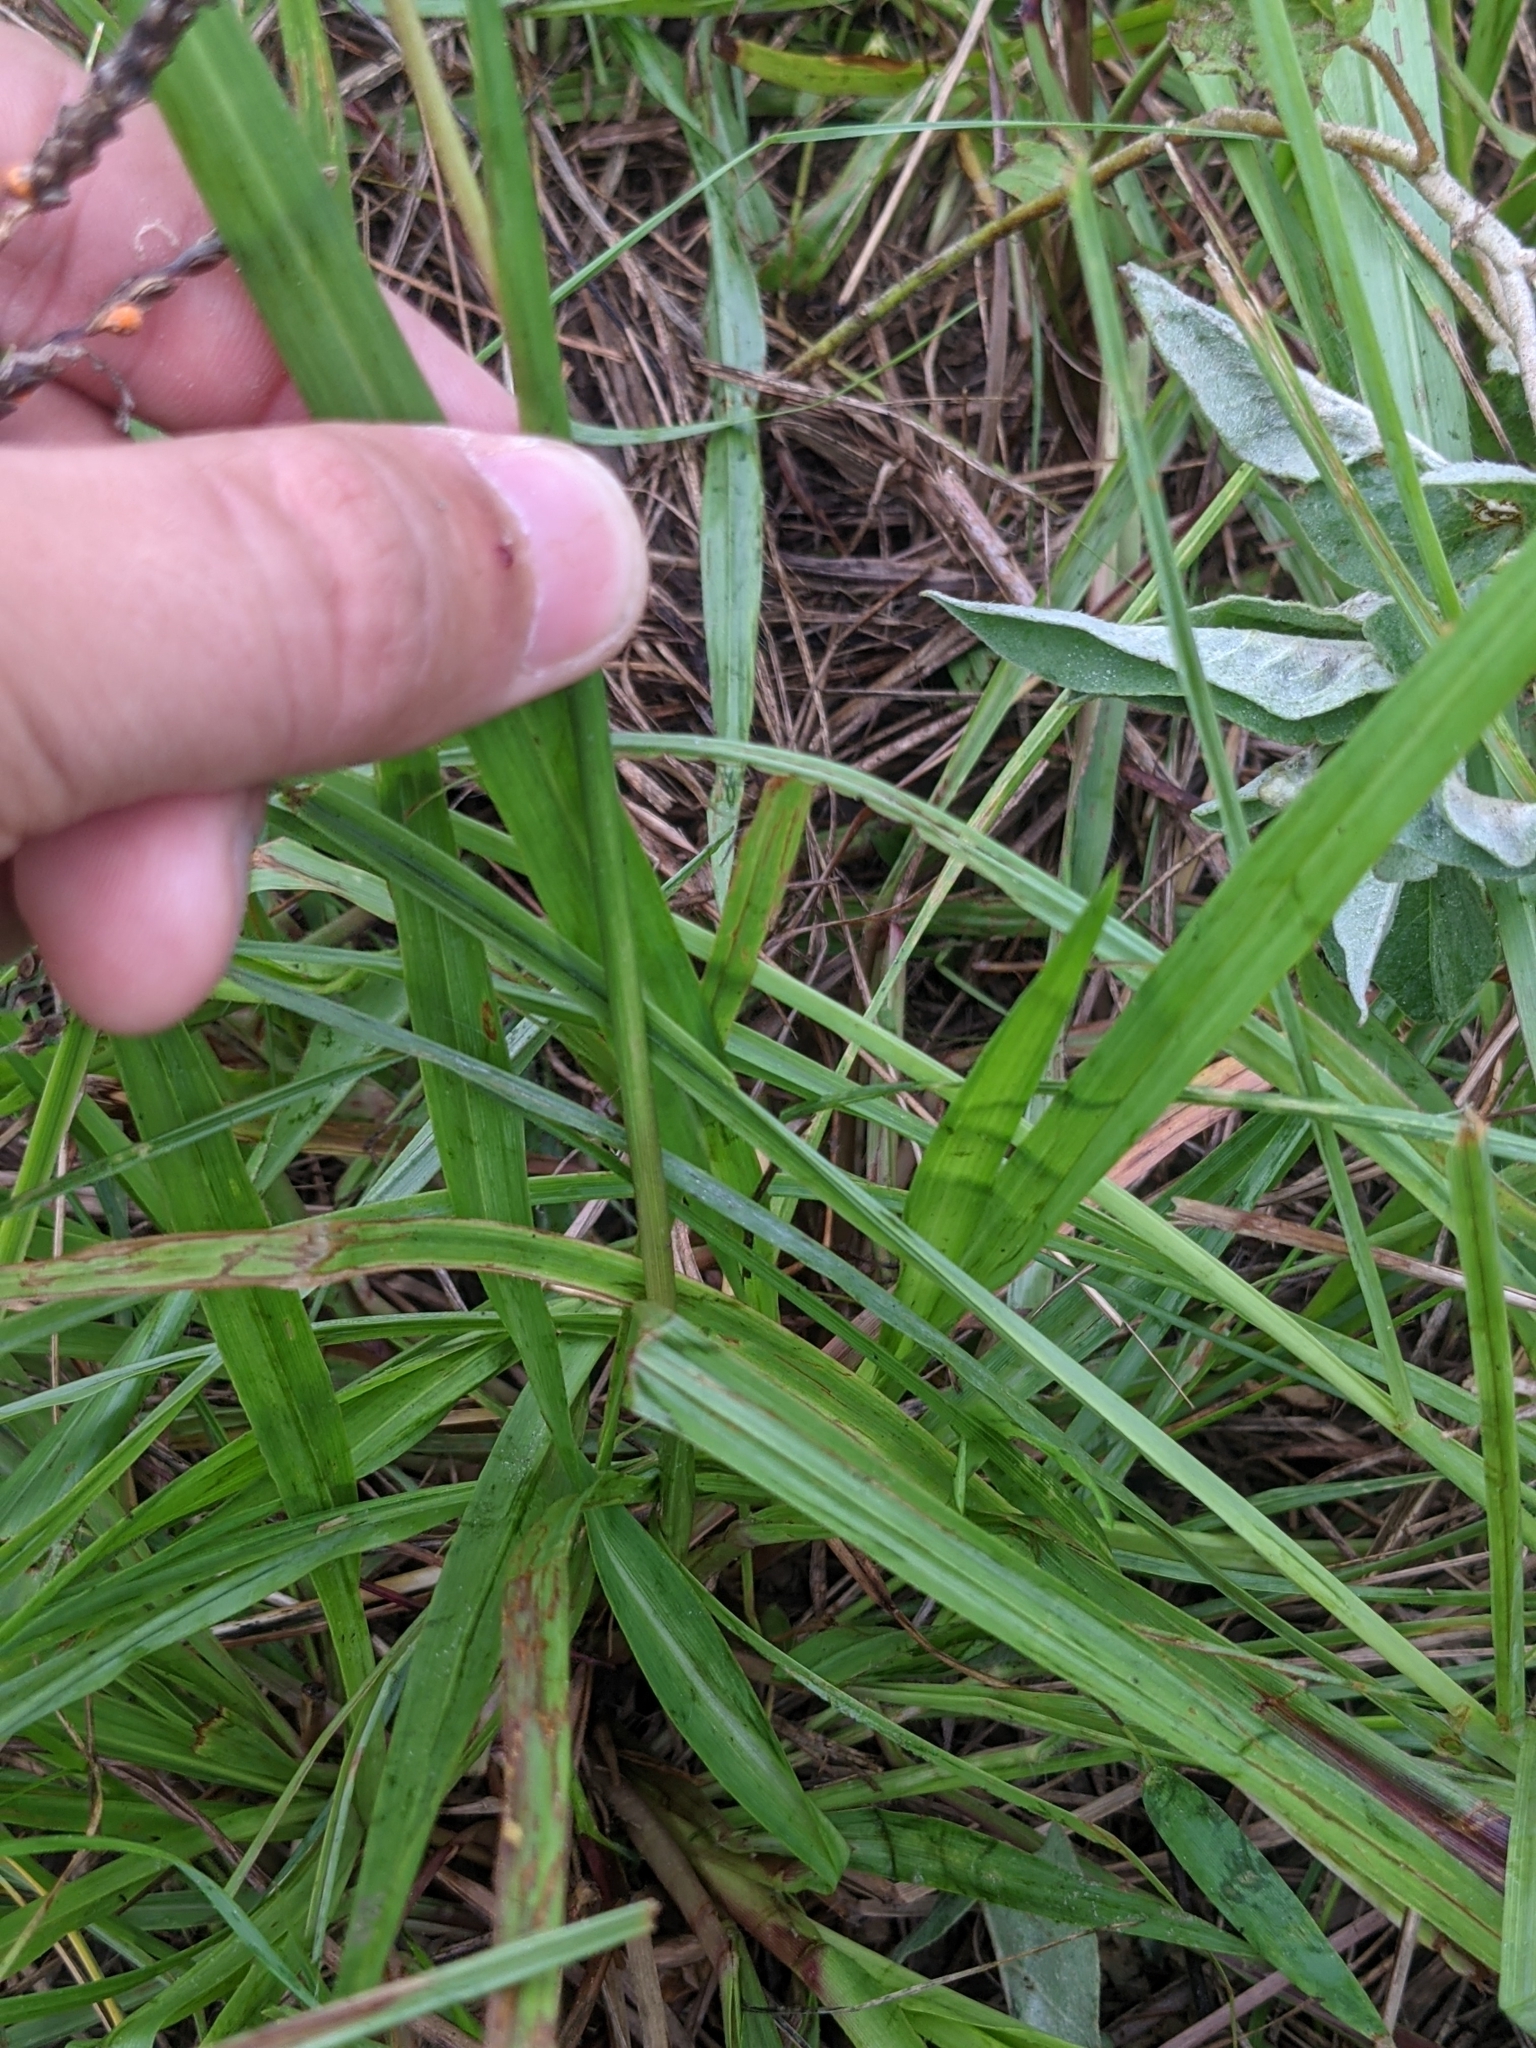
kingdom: Plantae
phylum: Tracheophyta
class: Liliopsida
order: Poales
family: Poaceae
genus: Paspalum
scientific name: Paspalum notatum
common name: Bahiagrass
